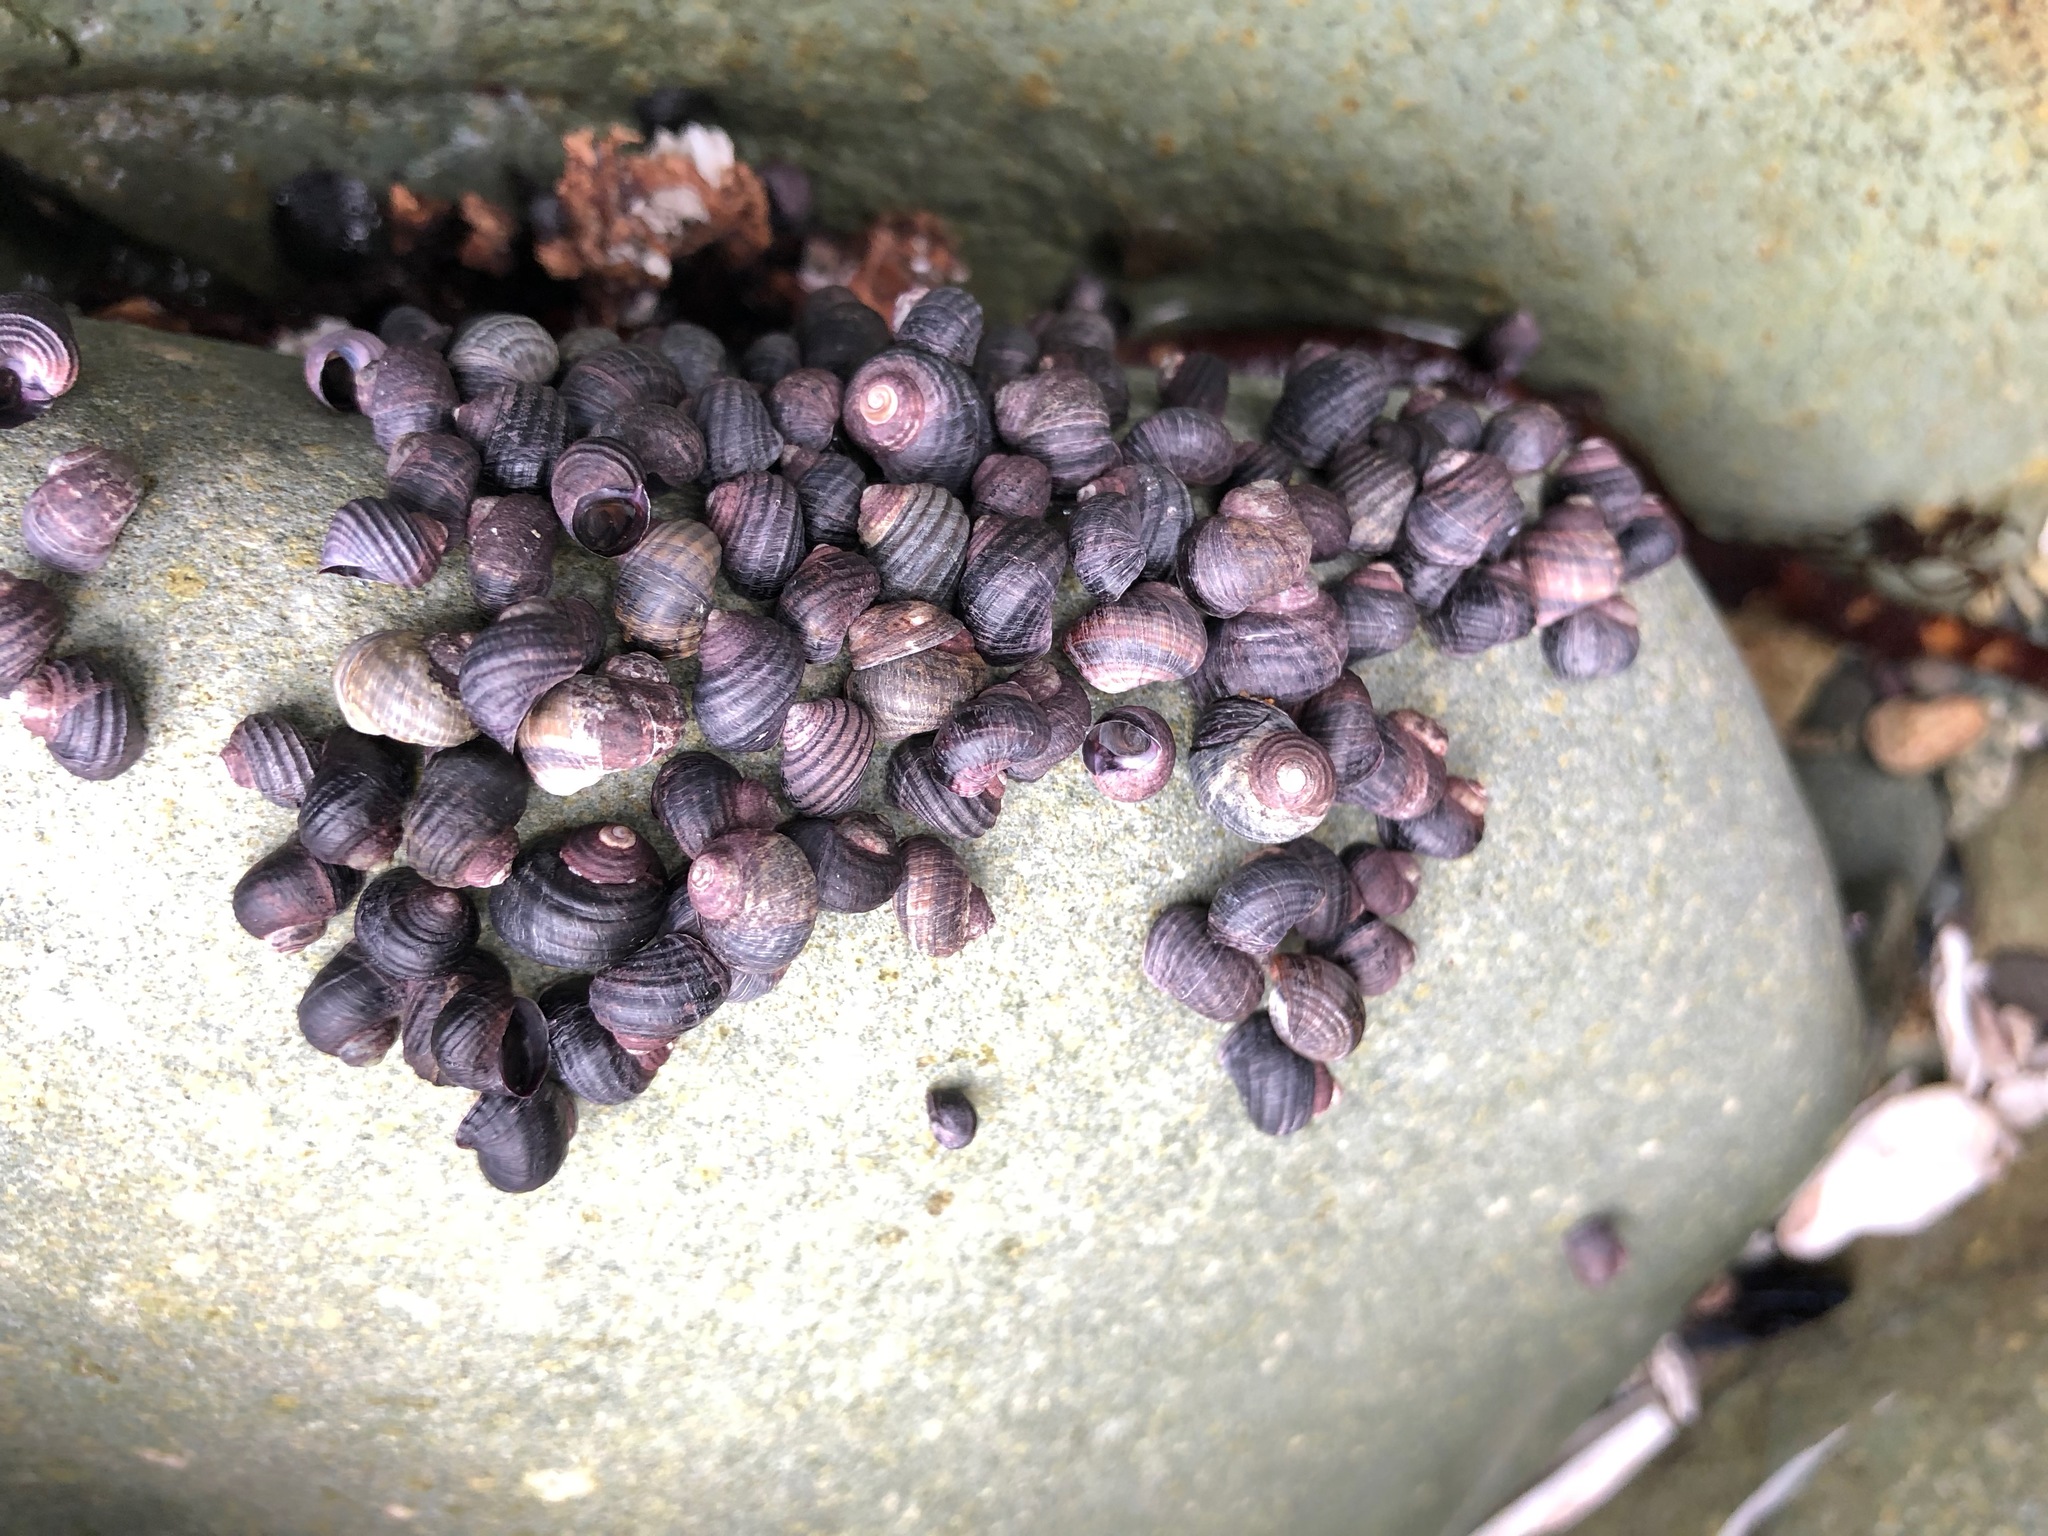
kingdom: Animalia
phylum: Mollusca
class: Gastropoda
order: Littorinimorpha
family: Littorinidae
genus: Littorina
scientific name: Littorina sitkana
